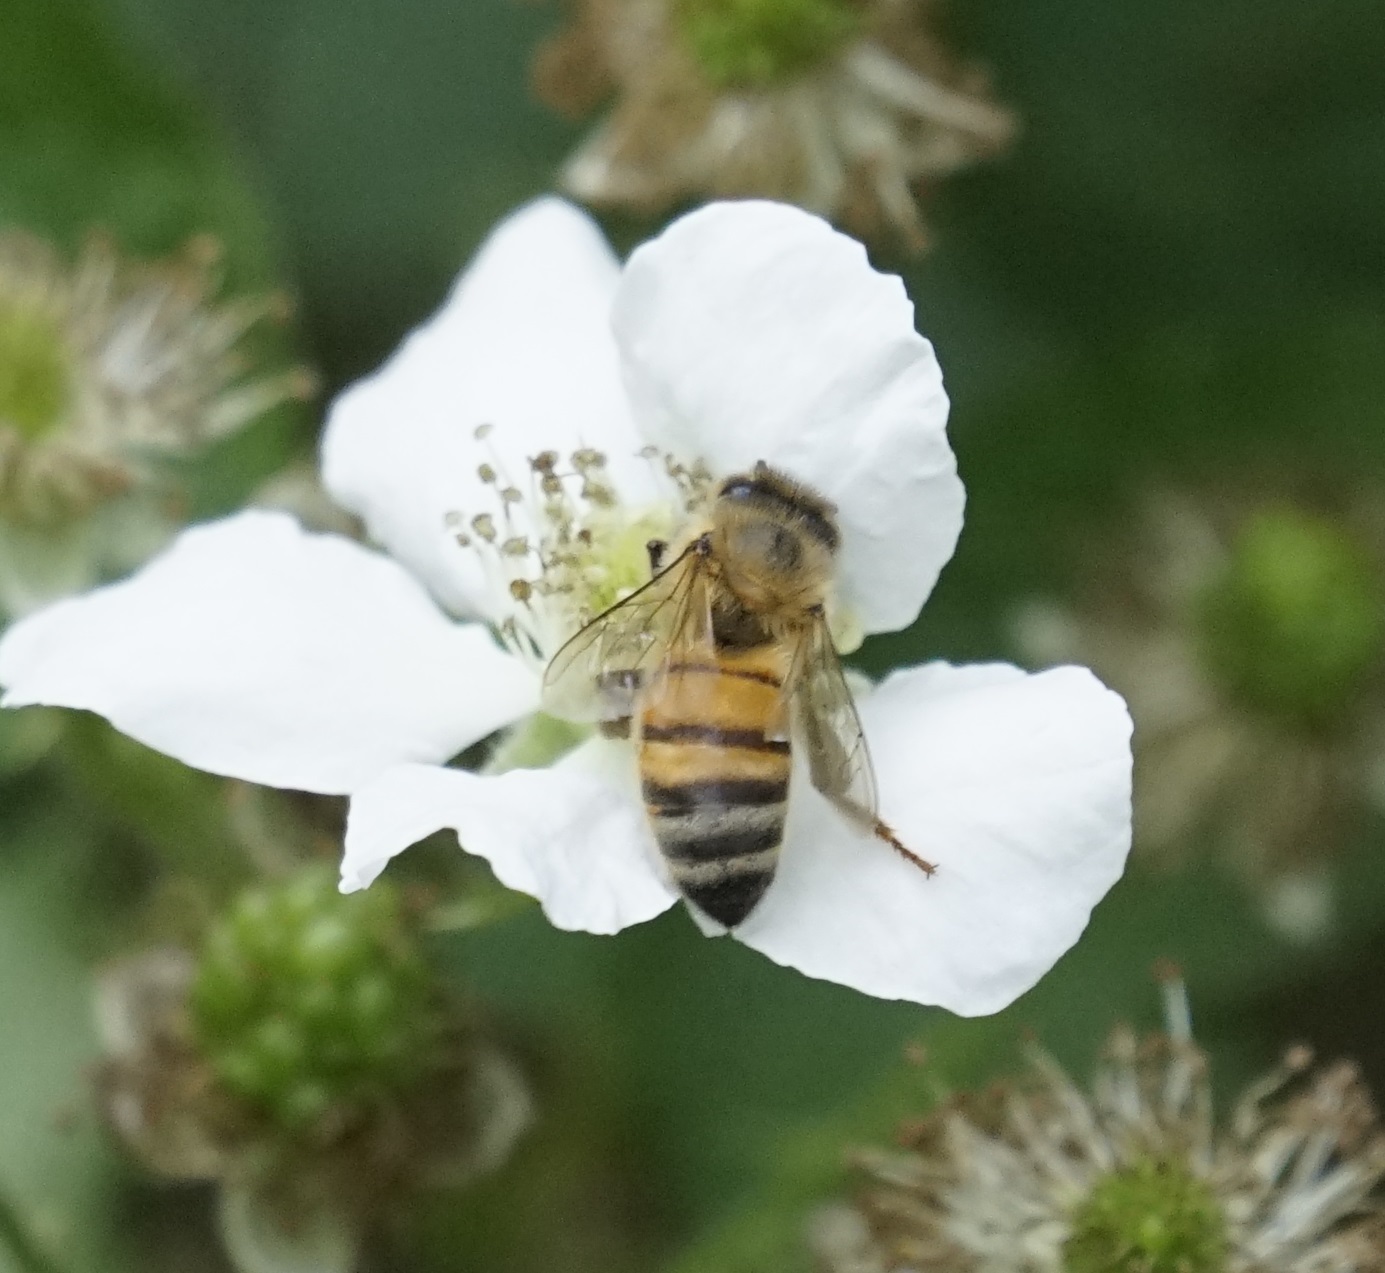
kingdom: Animalia
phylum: Arthropoda
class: Insecta
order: Hymenoptera
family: Apidae
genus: Apis
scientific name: Apis mellifera
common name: Honey bee
